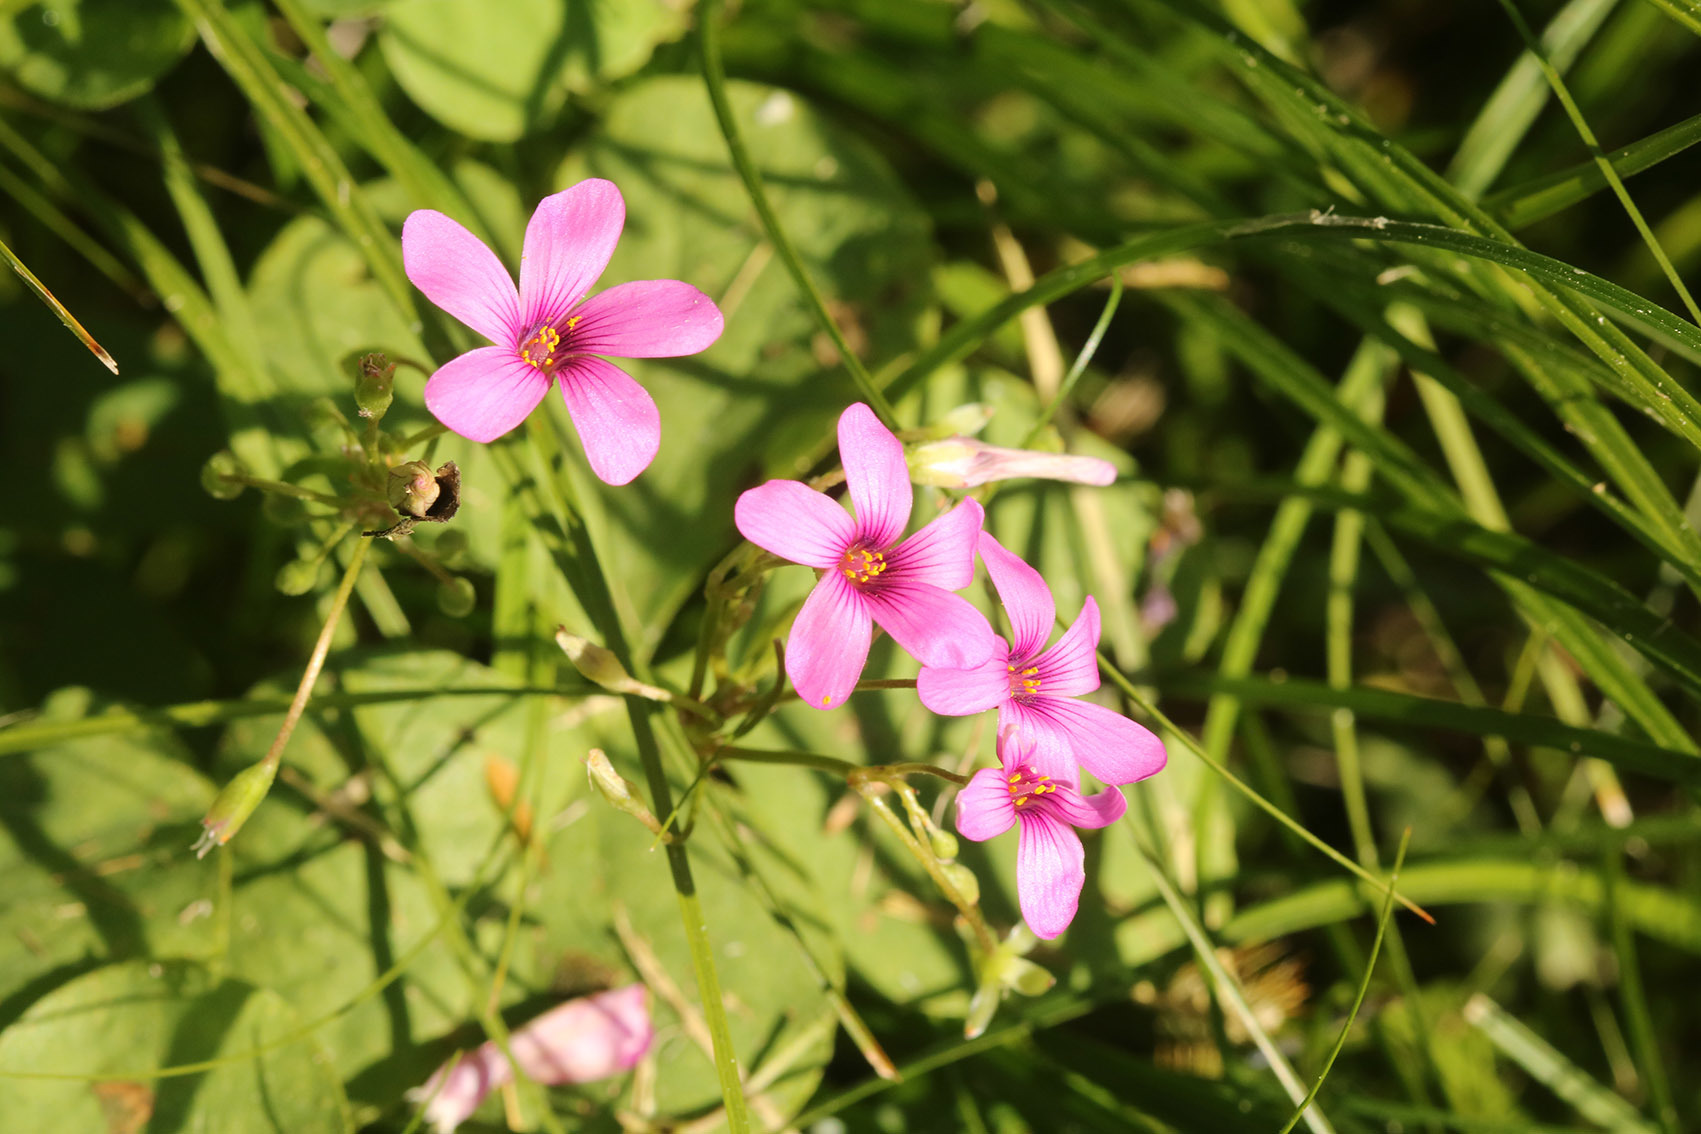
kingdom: Plantae
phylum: Tracheophyta
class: Magnoliopsida
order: Oxalidales
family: Oxalidaceae
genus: Oxalis
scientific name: Oxalis articulata
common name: Pink-sorrel
